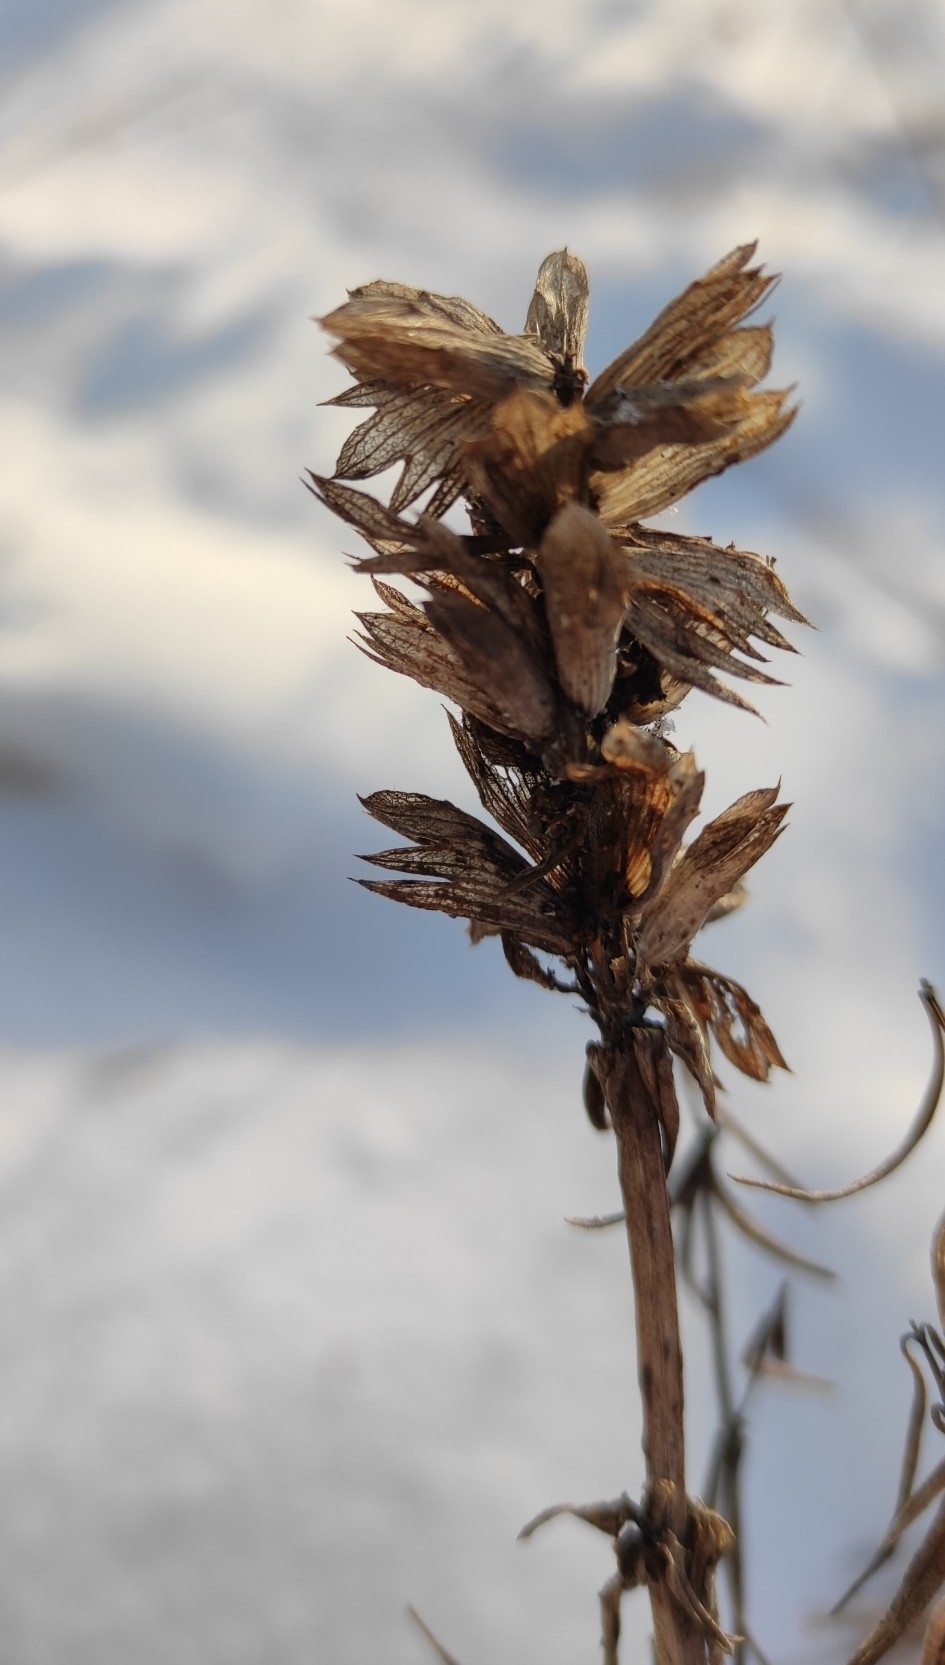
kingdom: Plantae
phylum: Tracheophyta
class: Magnoliopsida
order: Lamiales
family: Lamiaceae
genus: Dracocephalum
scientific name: Dracocephalum ruyschiana
